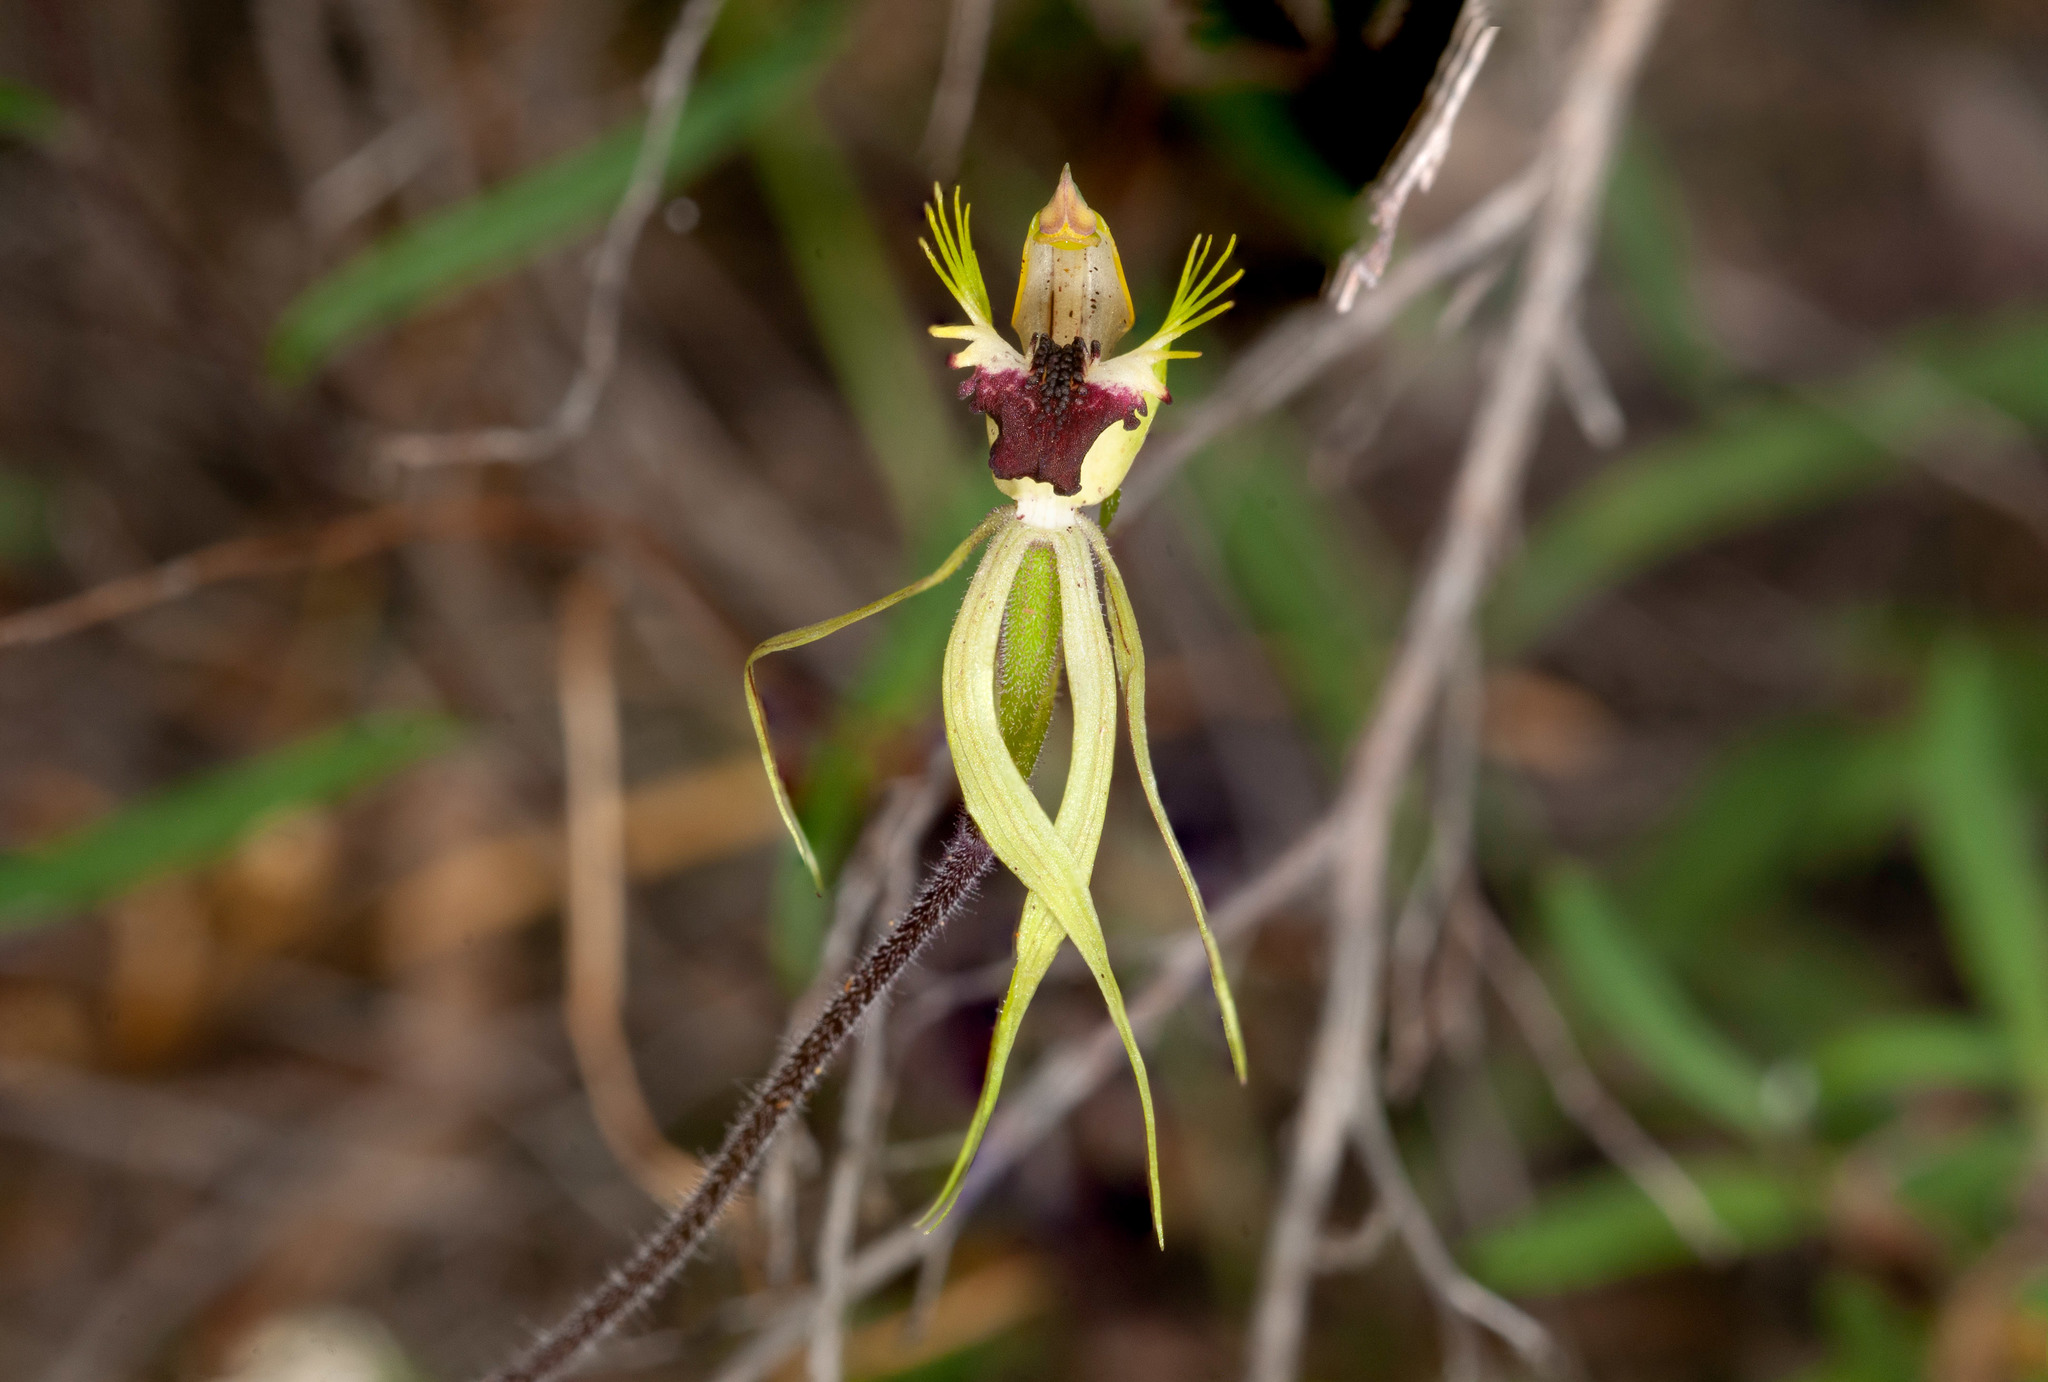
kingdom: Plantae
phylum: Tracheophyta
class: Liliopsida
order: Asparagales
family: Orchidaceae
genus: Caladenia
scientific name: Caladenia stricta
